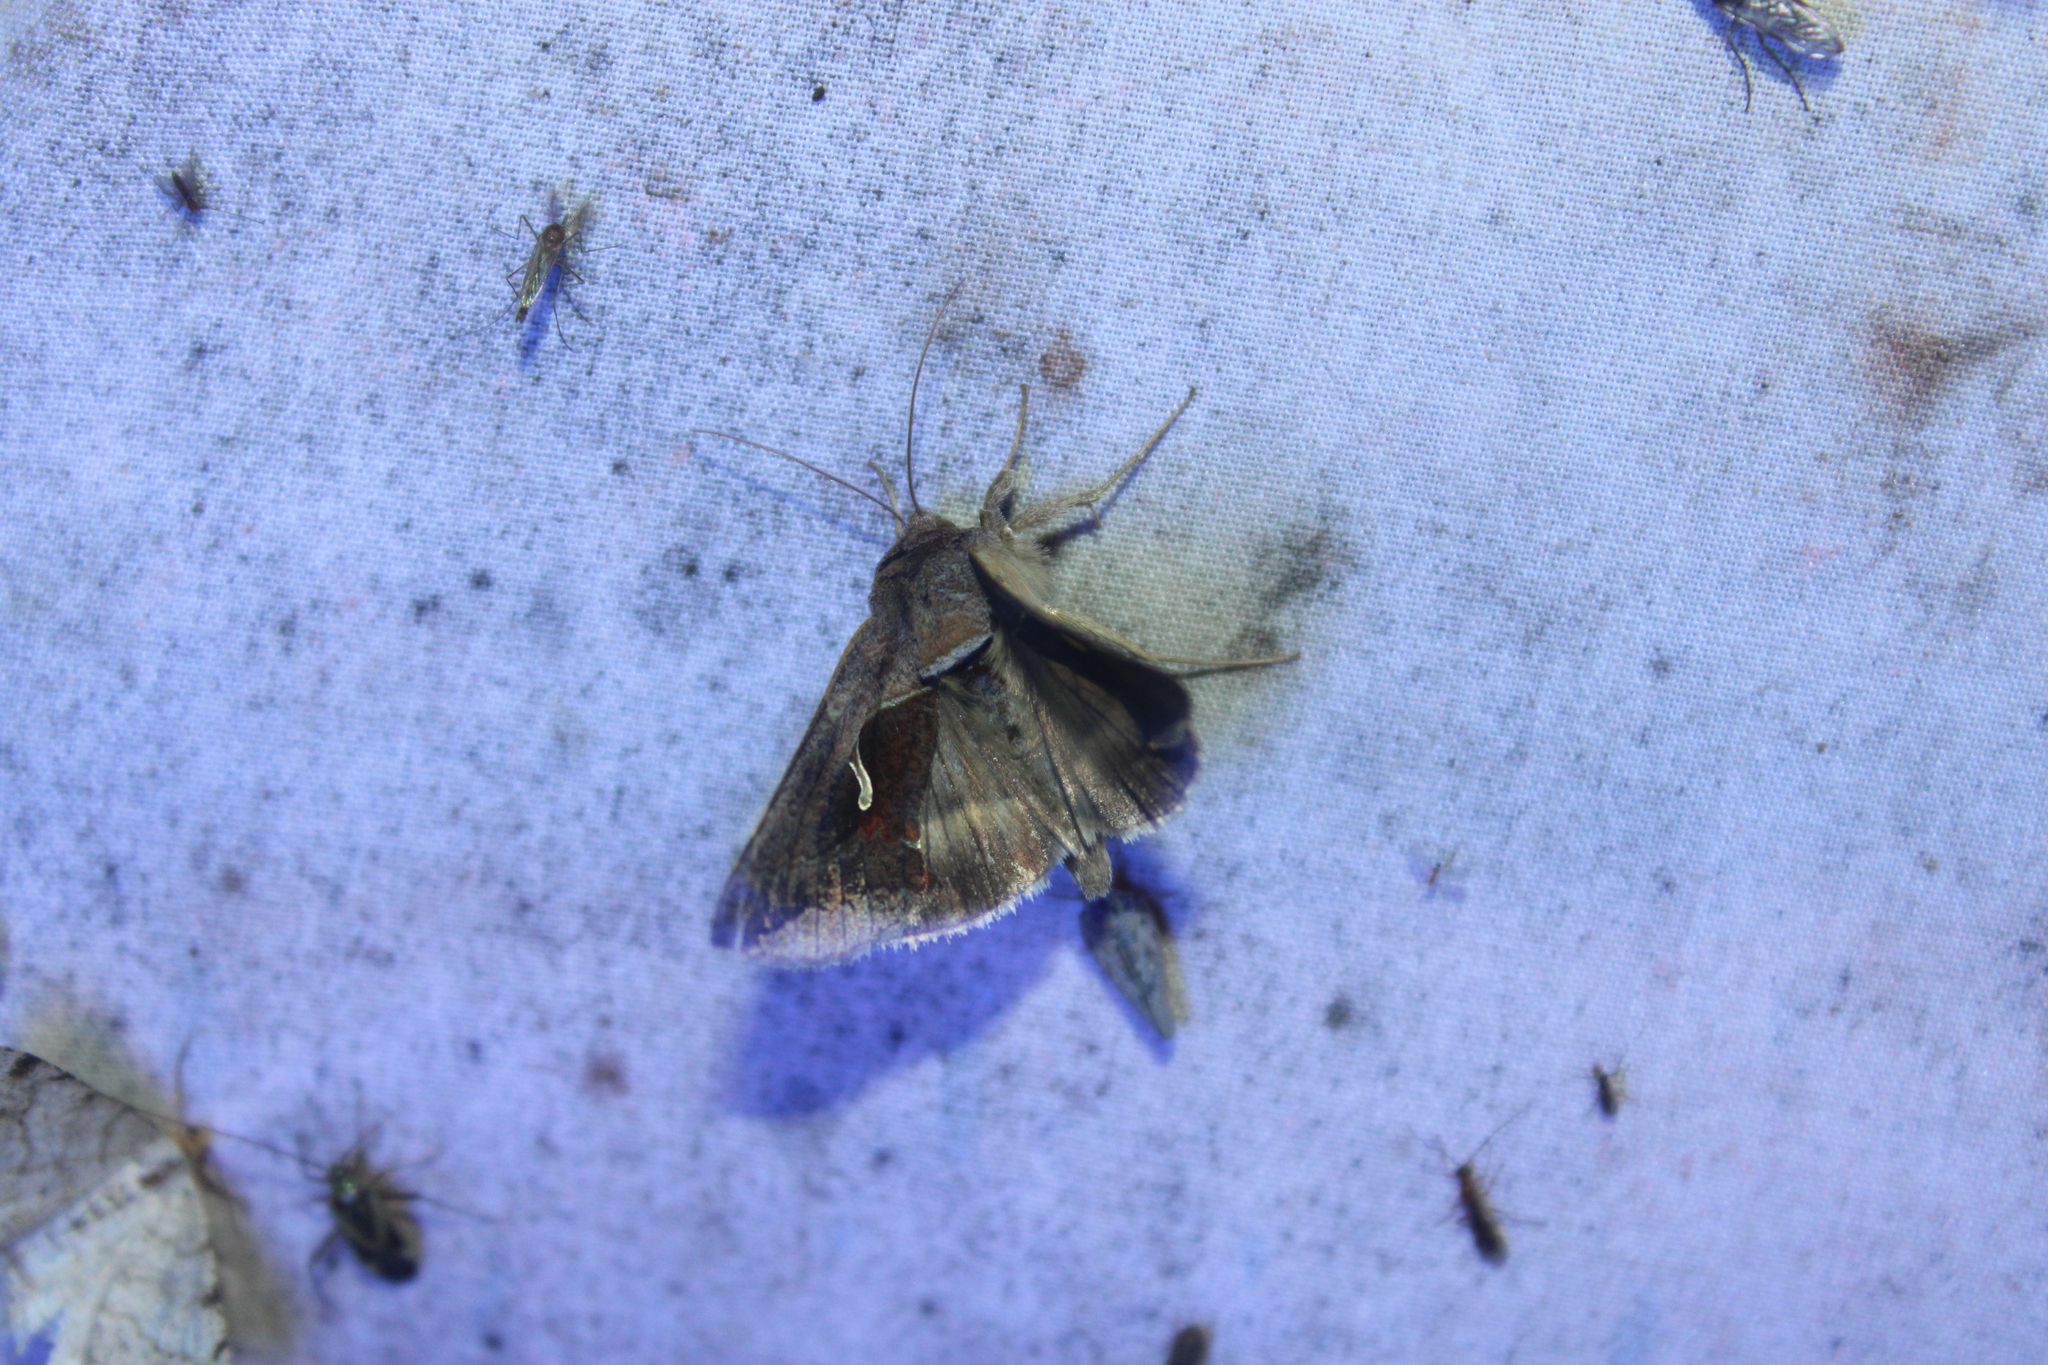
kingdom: Animalia
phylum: Arthropoda
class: Insecta
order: Lepidoptera
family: Noctuidae
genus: Anagrapha
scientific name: Anagrapha falcifera
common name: Celery looper
